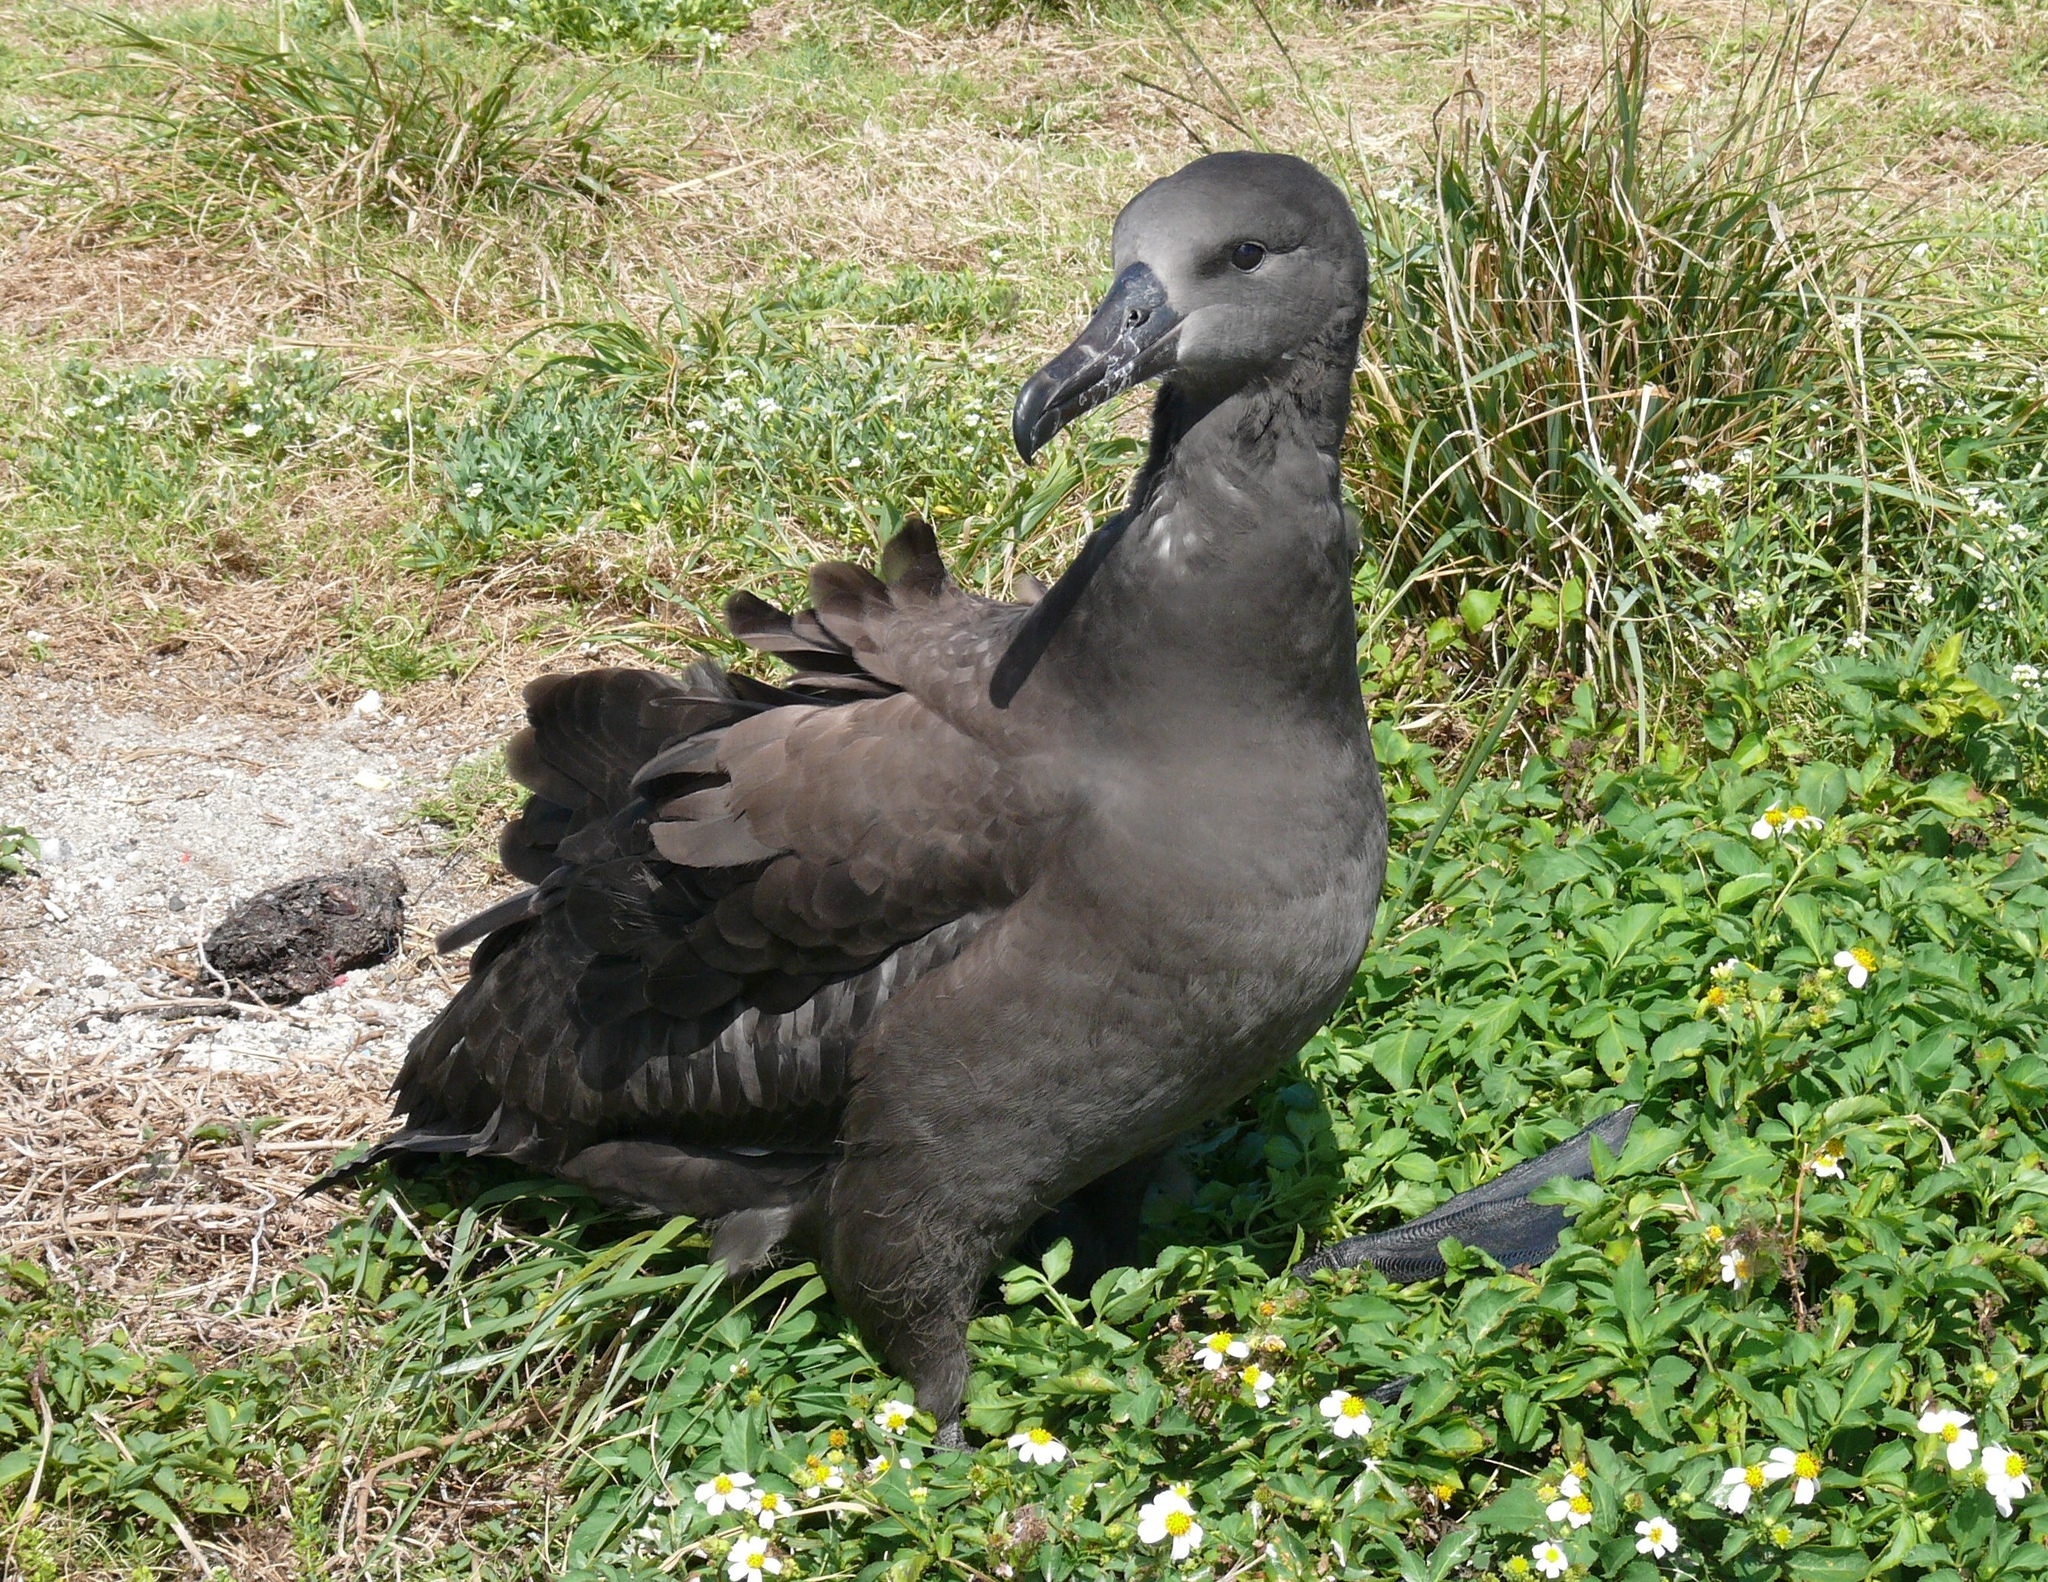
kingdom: Animalia
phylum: Chordata
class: Aves
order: Procellariiformes
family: Diomedeidae
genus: Phoebastria
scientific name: Phoebastria nigripes
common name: Black-footed albatross
